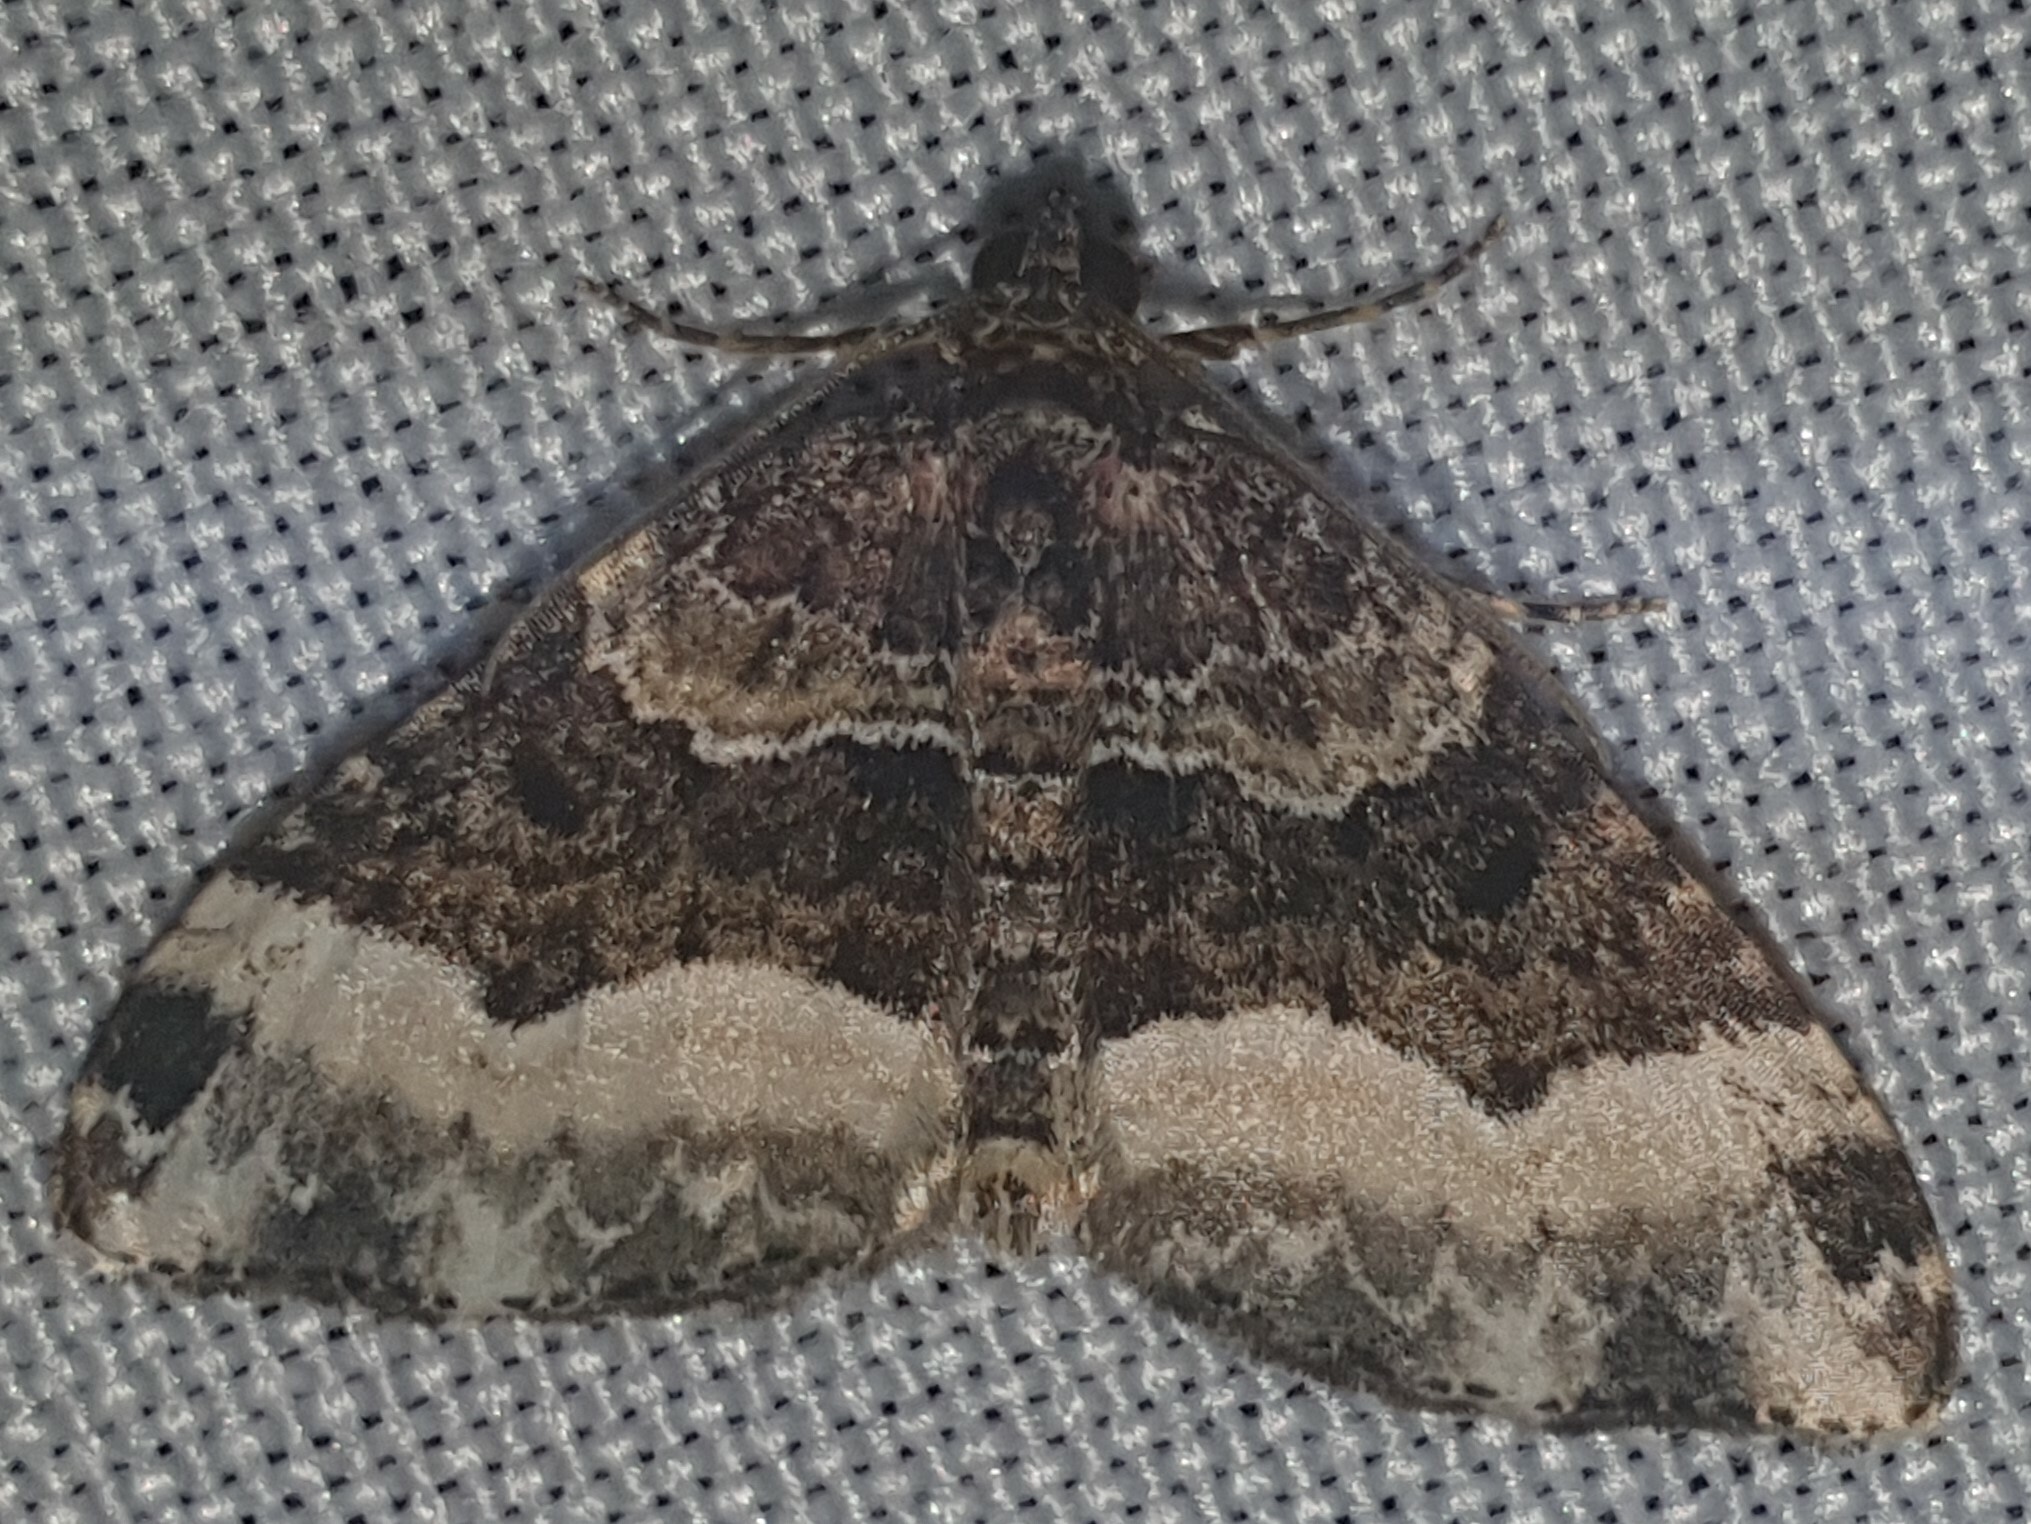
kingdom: Animalia
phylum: Arthropoda
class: Insecta
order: Lepidoptera
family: Geometridae
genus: Euphyia
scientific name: Euphyia unangulata
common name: Sharp-angled carpet
